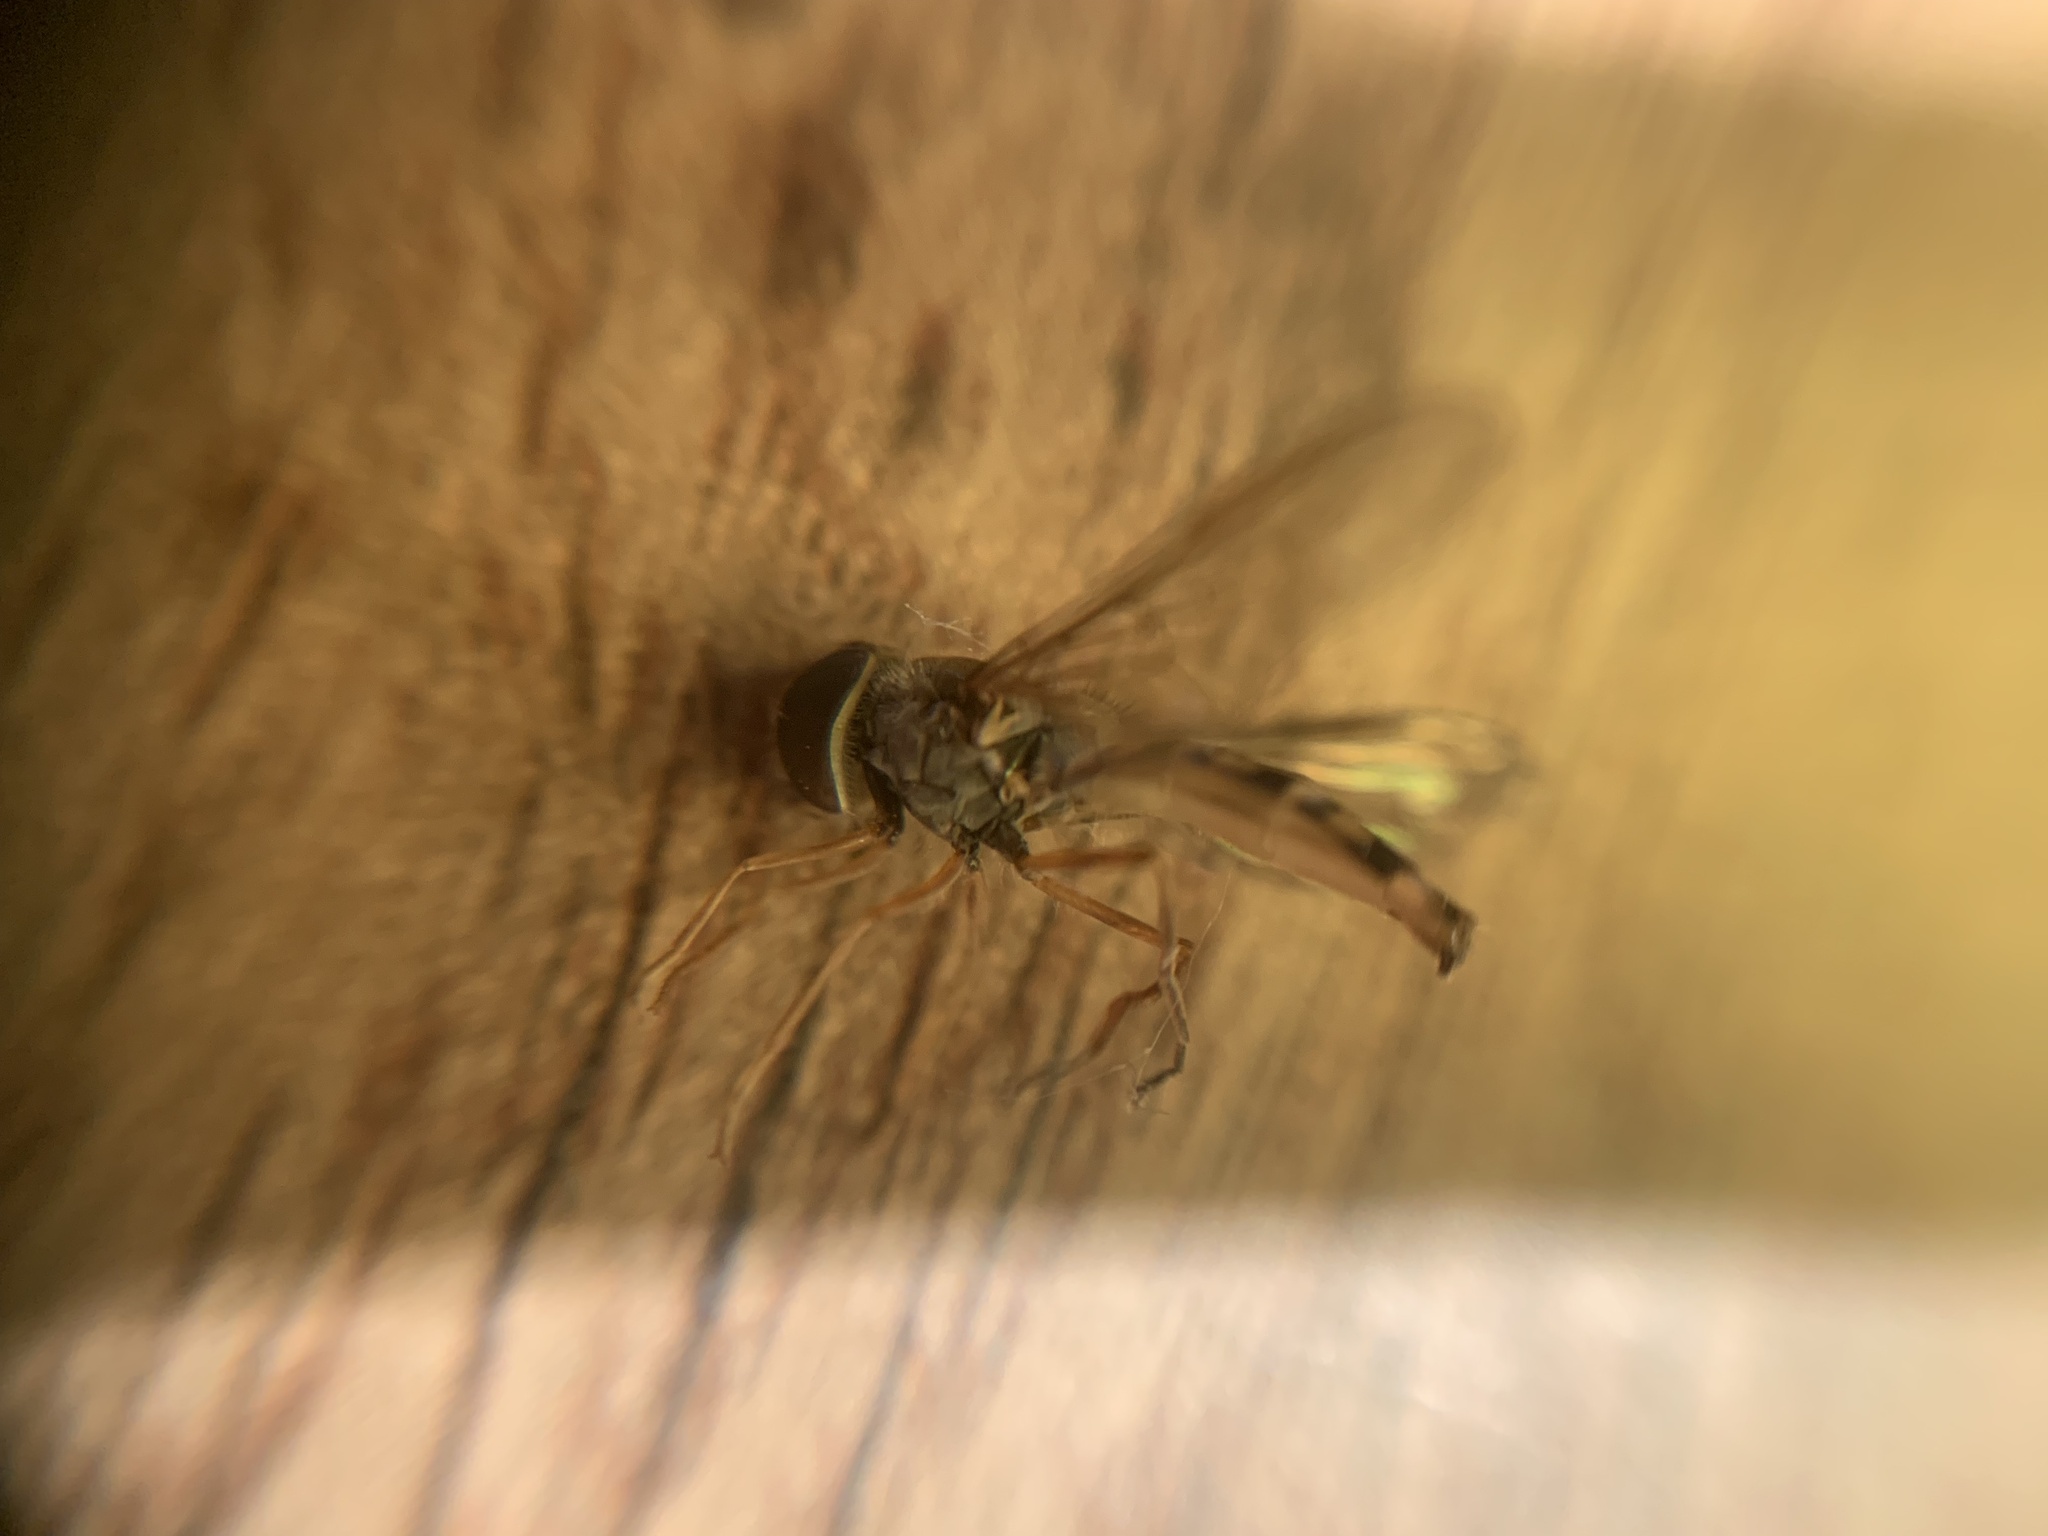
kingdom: Animalia
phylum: Arthropoda
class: Insecta
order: Diptera
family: Syrphidae
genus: Episyrphus
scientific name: Episyrphus balteatus
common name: Marmalade hoverfly
